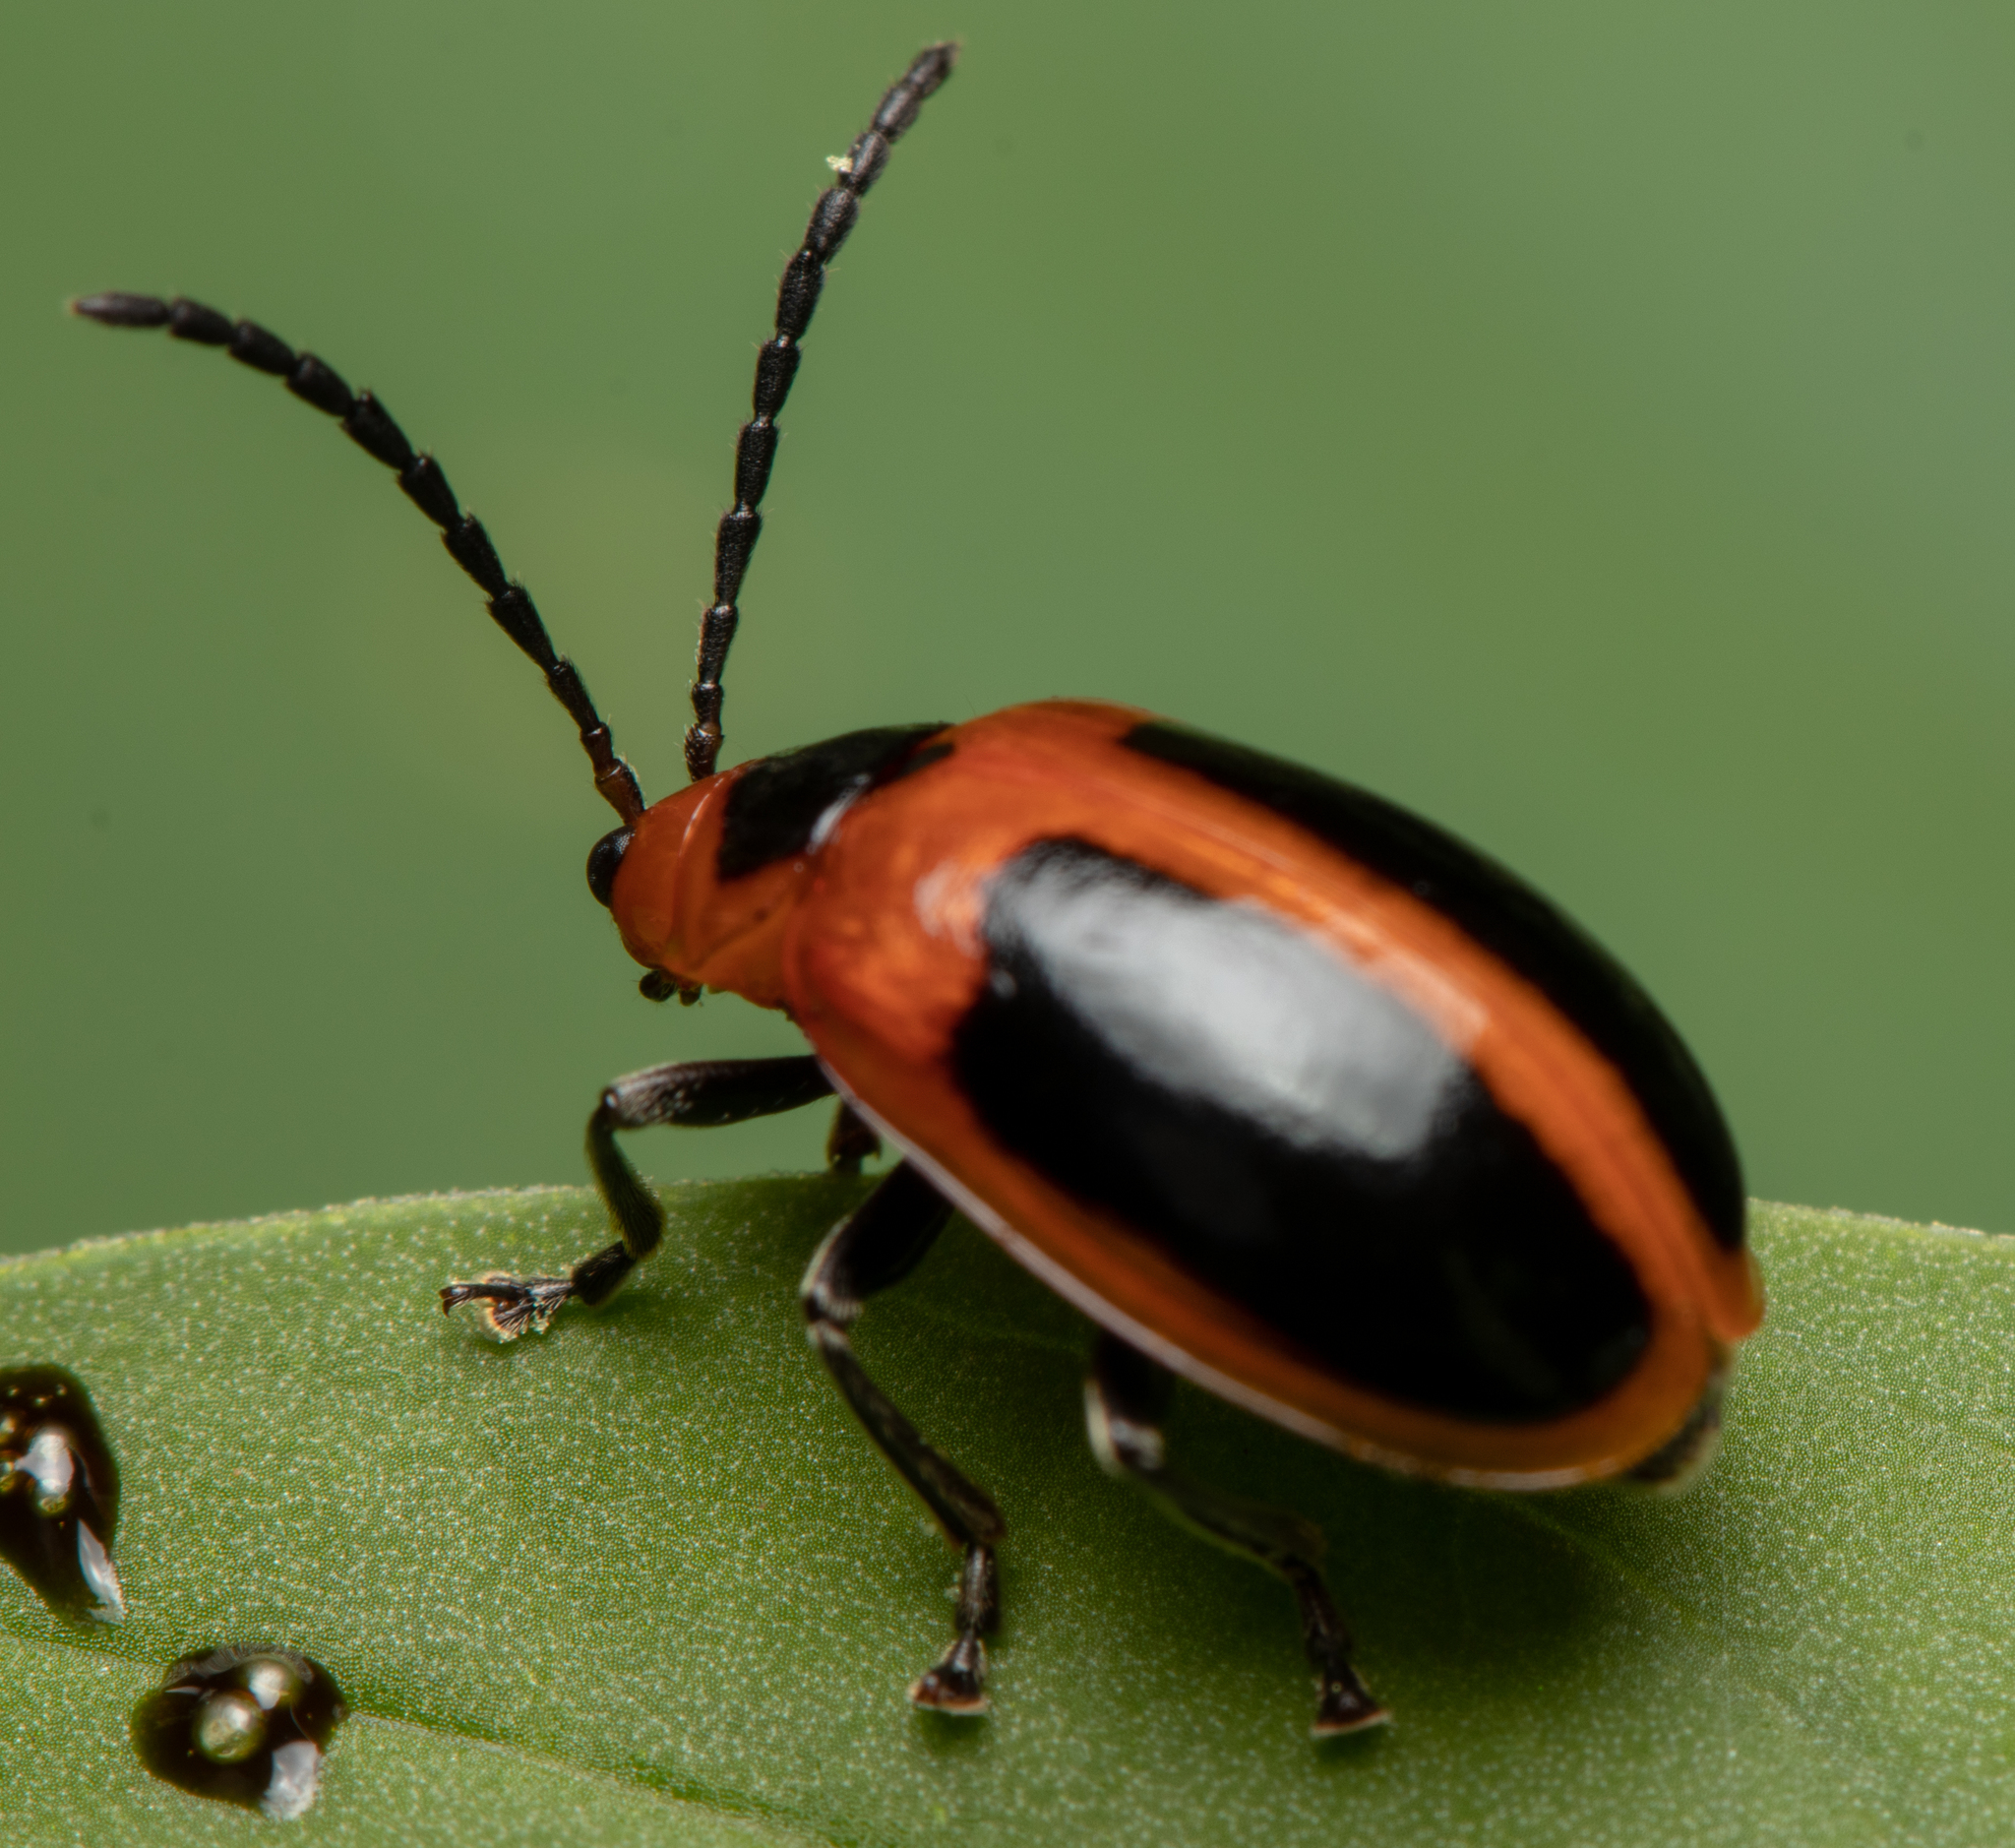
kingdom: Animalia
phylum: Arthropoda
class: Insecta
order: Coleoptera
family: Chrysomelidae
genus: Oides
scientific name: Oides
